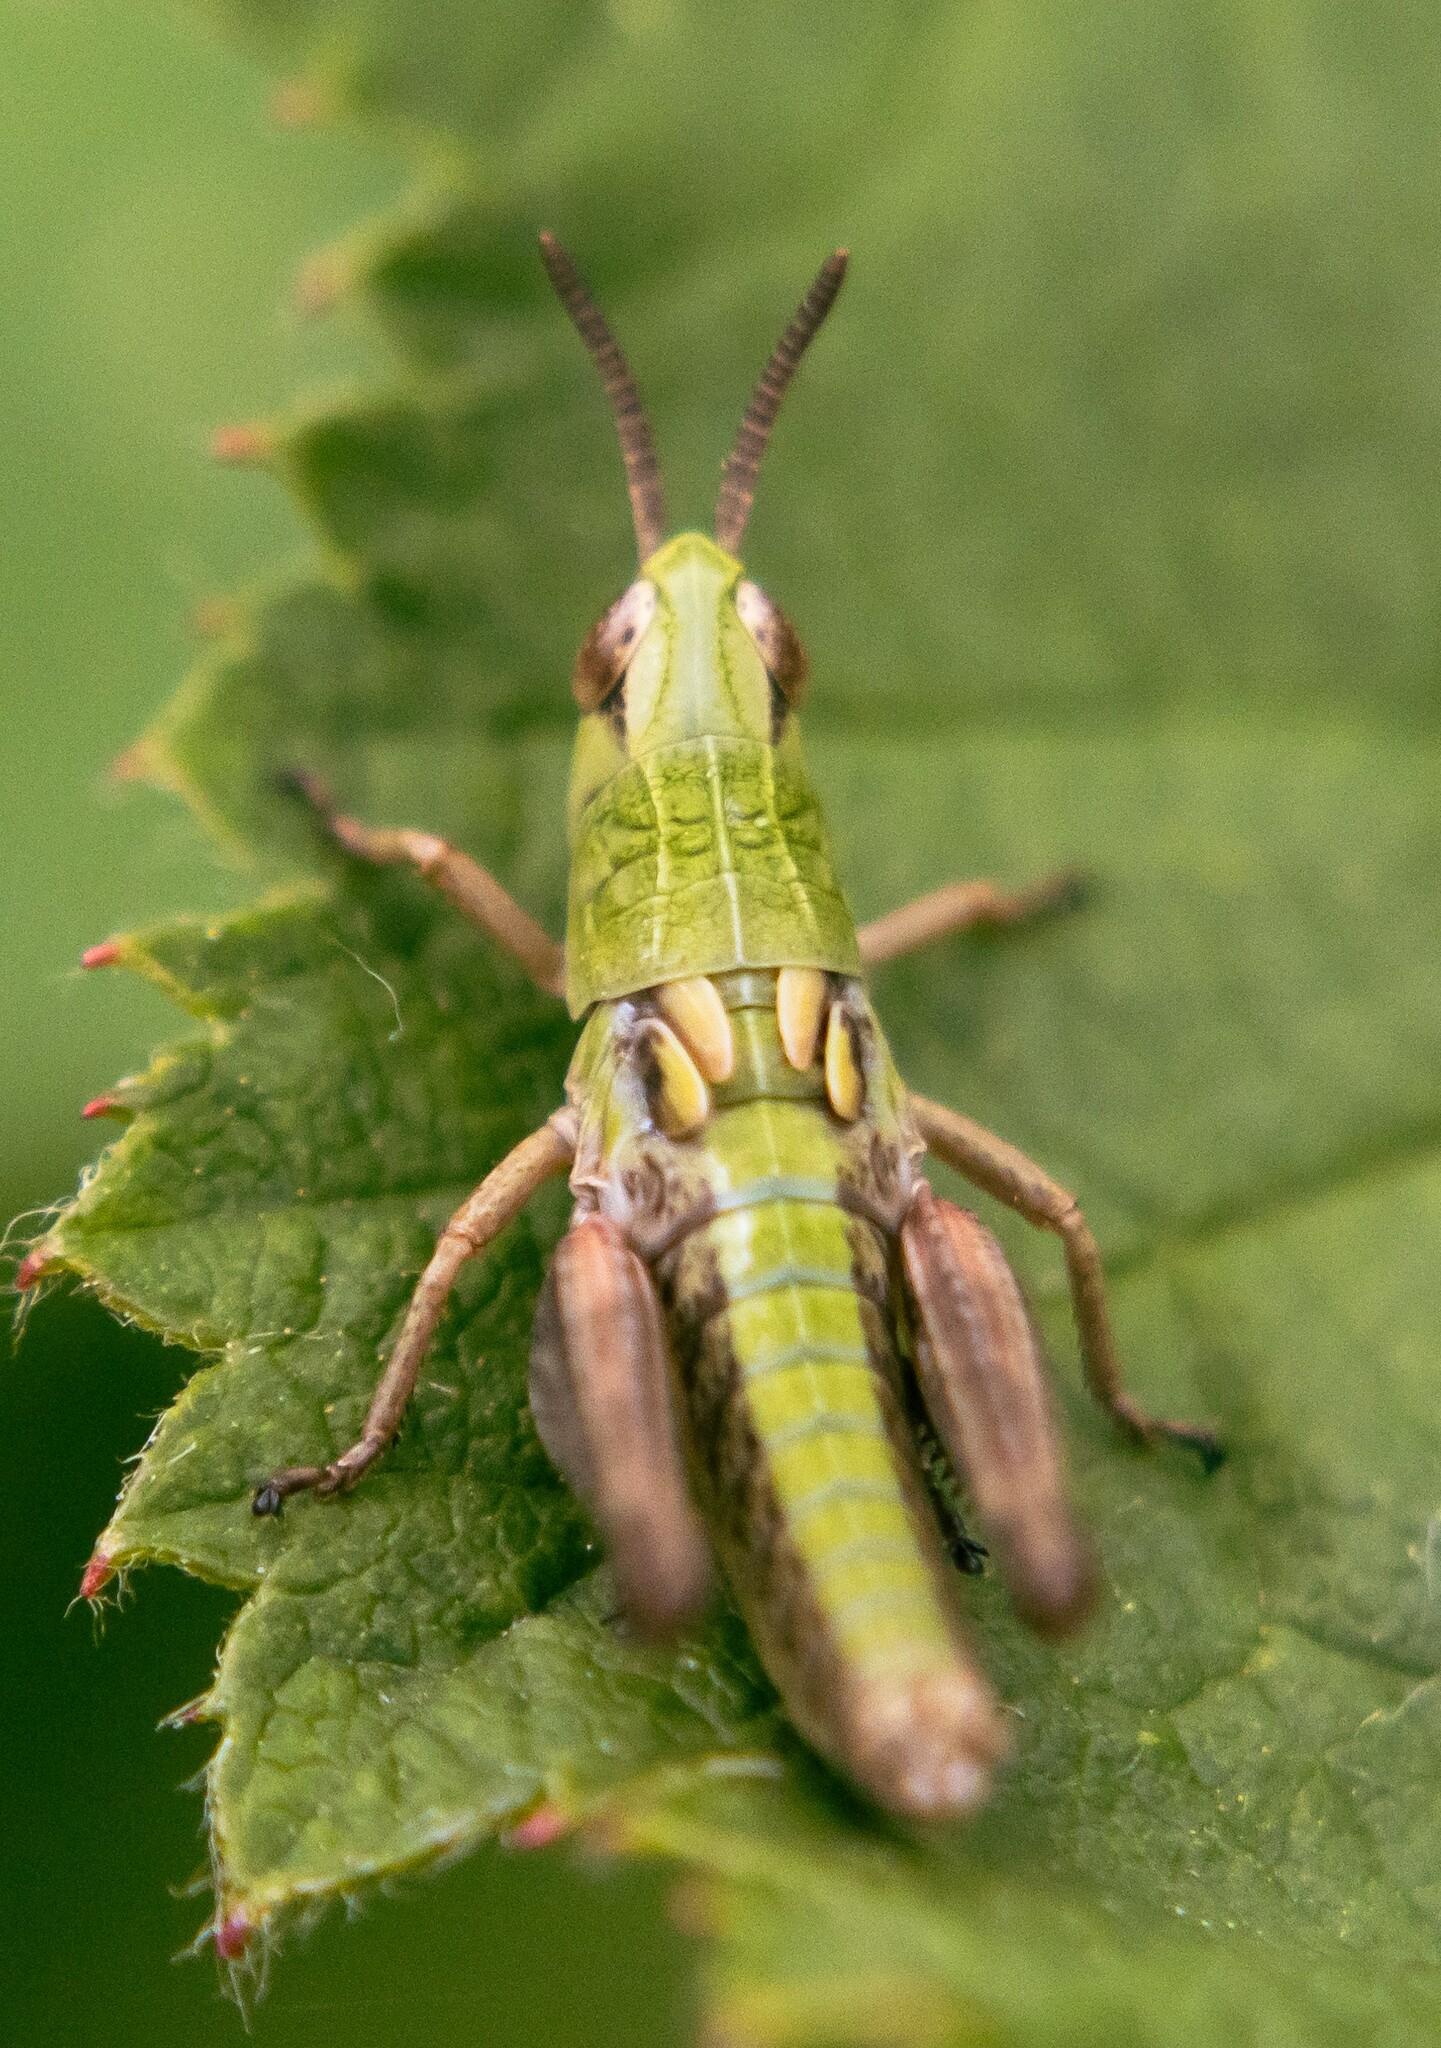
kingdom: Animalia
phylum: Arthropoda
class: Insecta
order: Orthoptera
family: Acrididae
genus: Pseudochorthippus
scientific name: Pseudochorthippus parallelus
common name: Meadow grasshopper
